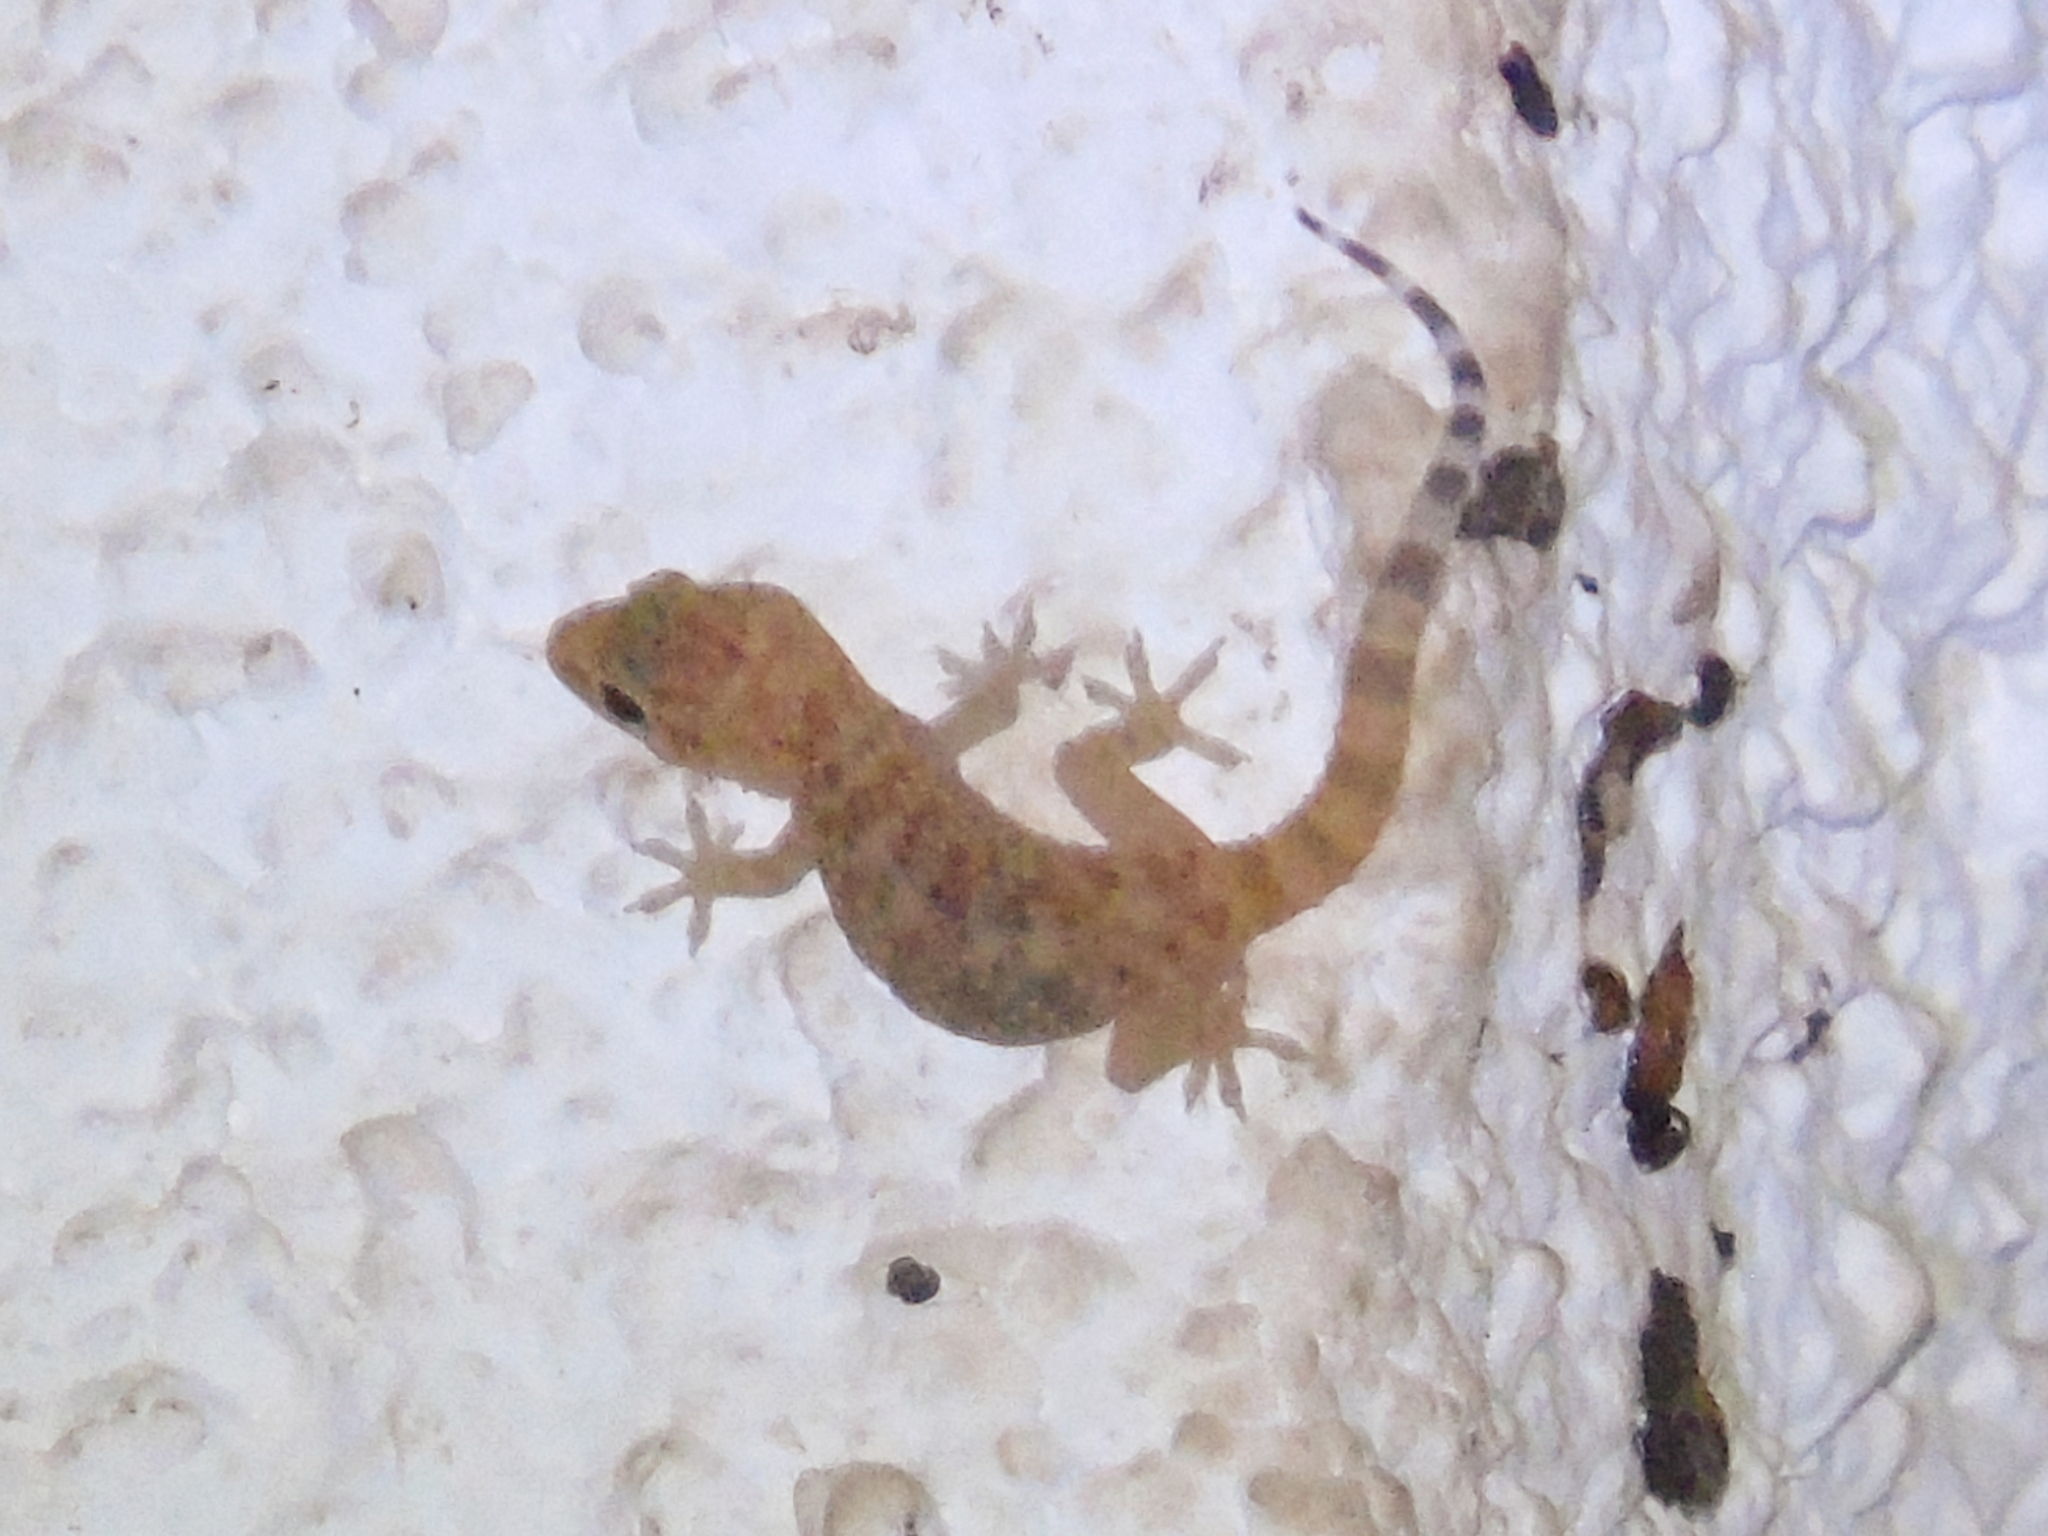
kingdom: Animalia
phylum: Chordata
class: Squamata
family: Gekkonidae
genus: Hemidactylus
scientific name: Hemidactylus turcicus
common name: Turkish gecko
